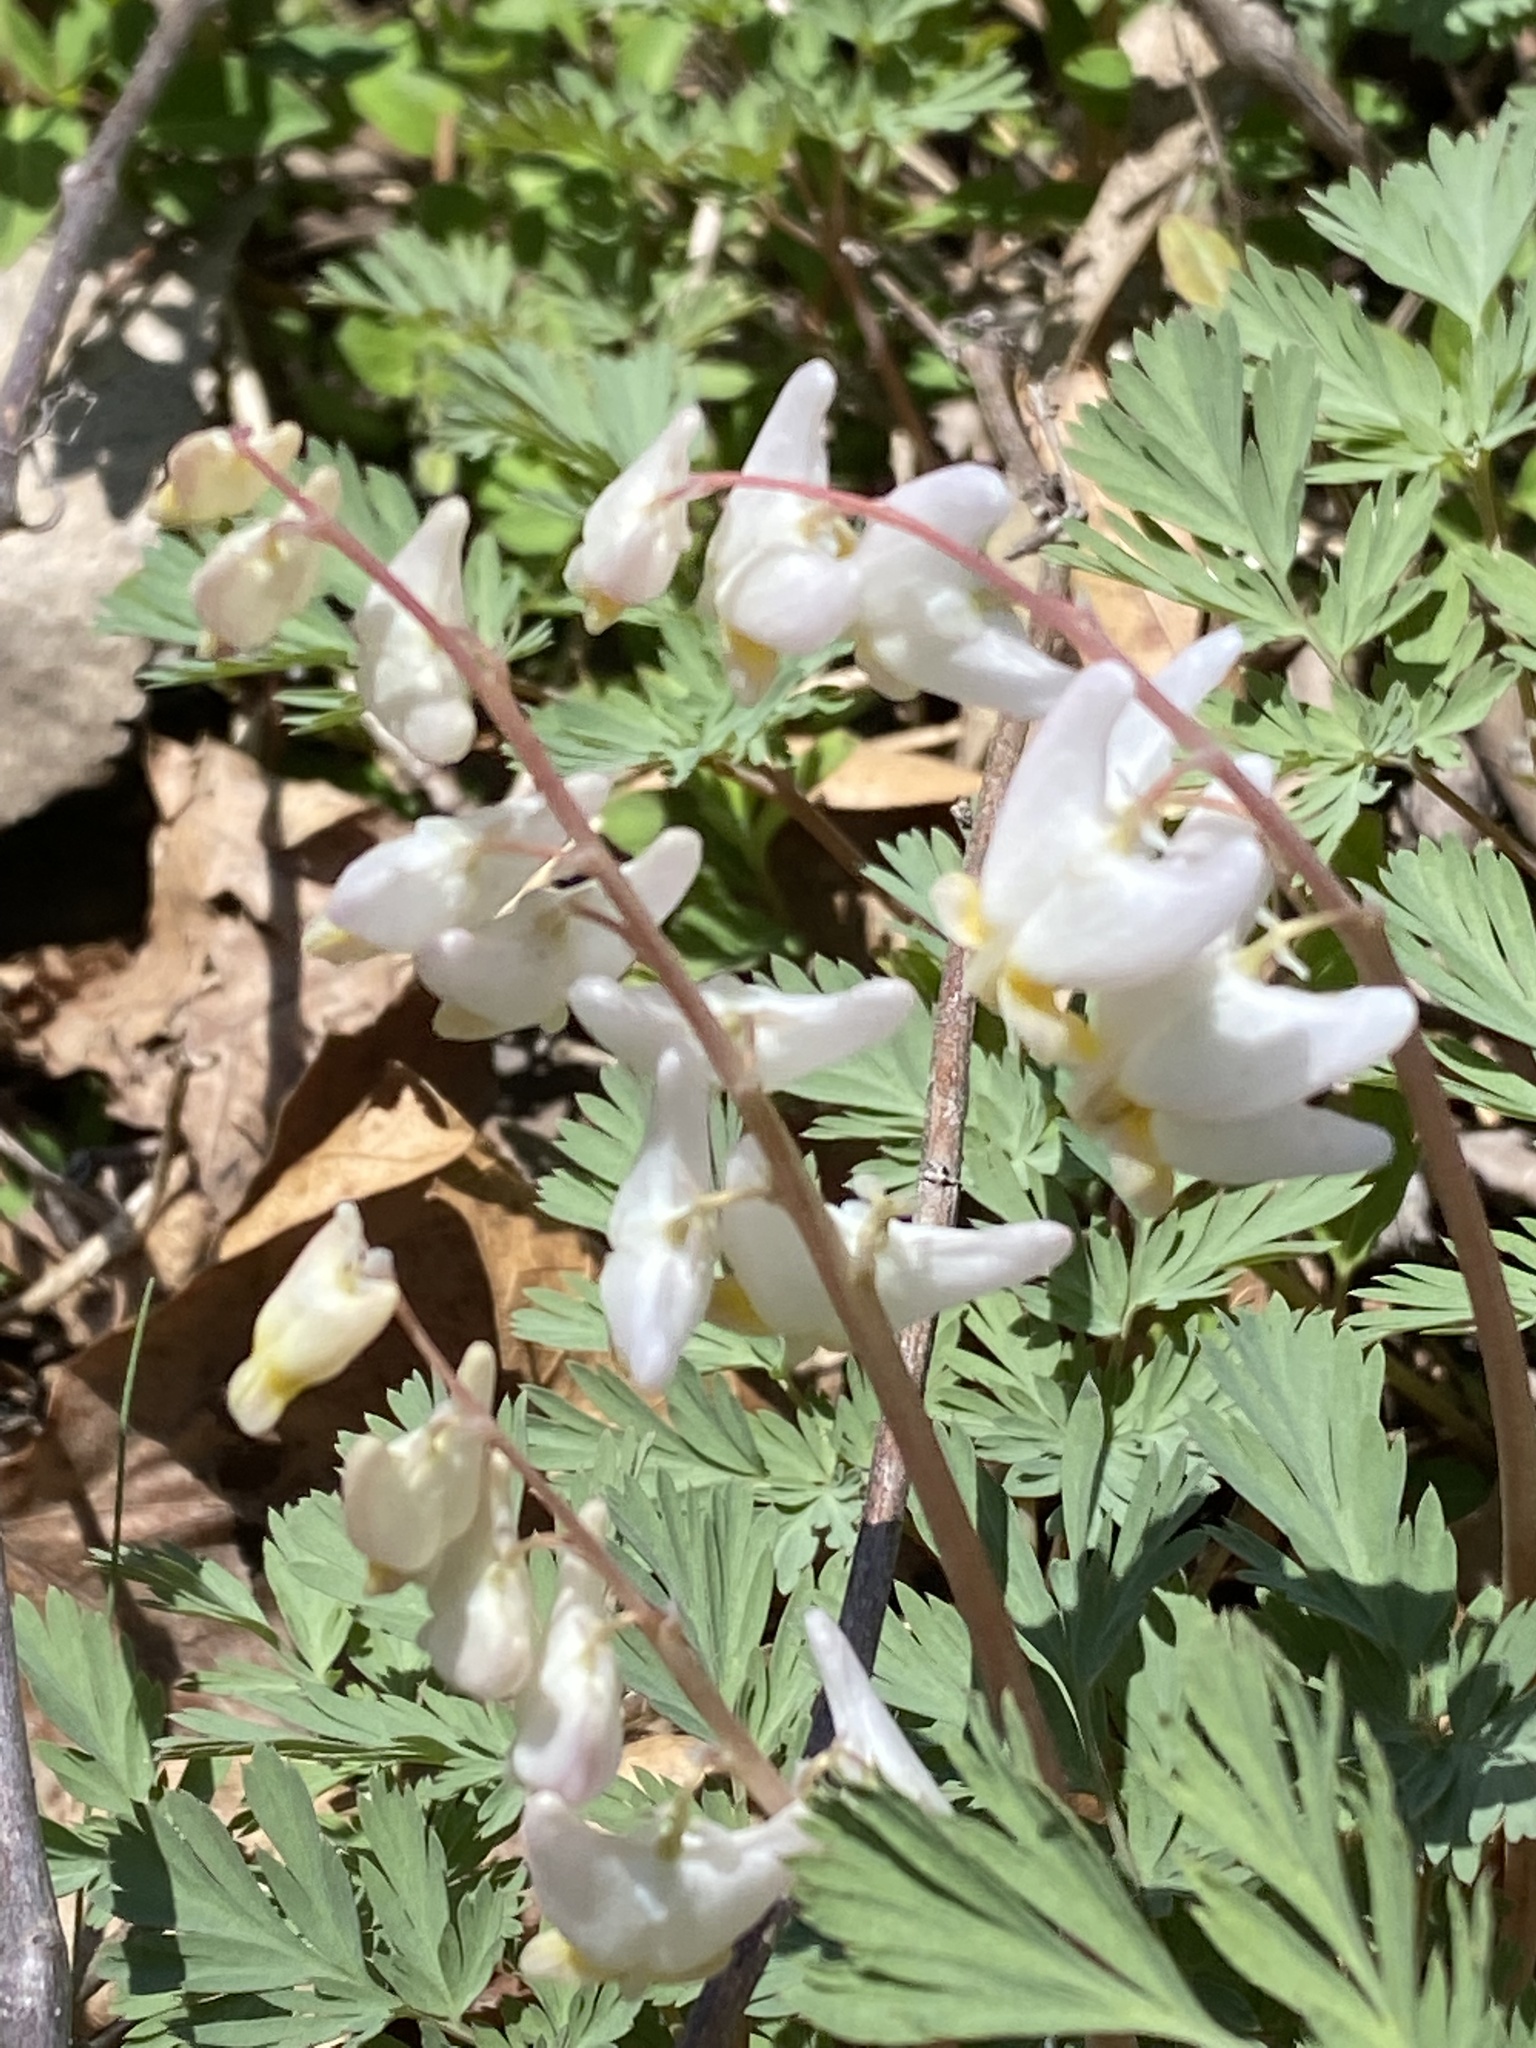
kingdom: Plantae
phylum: Tracheophyta
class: Magnoliopsida
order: Ranunculales
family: Papaveraceae
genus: Dicentra
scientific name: Dicentra cucullaria
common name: Dutchman's breeches
